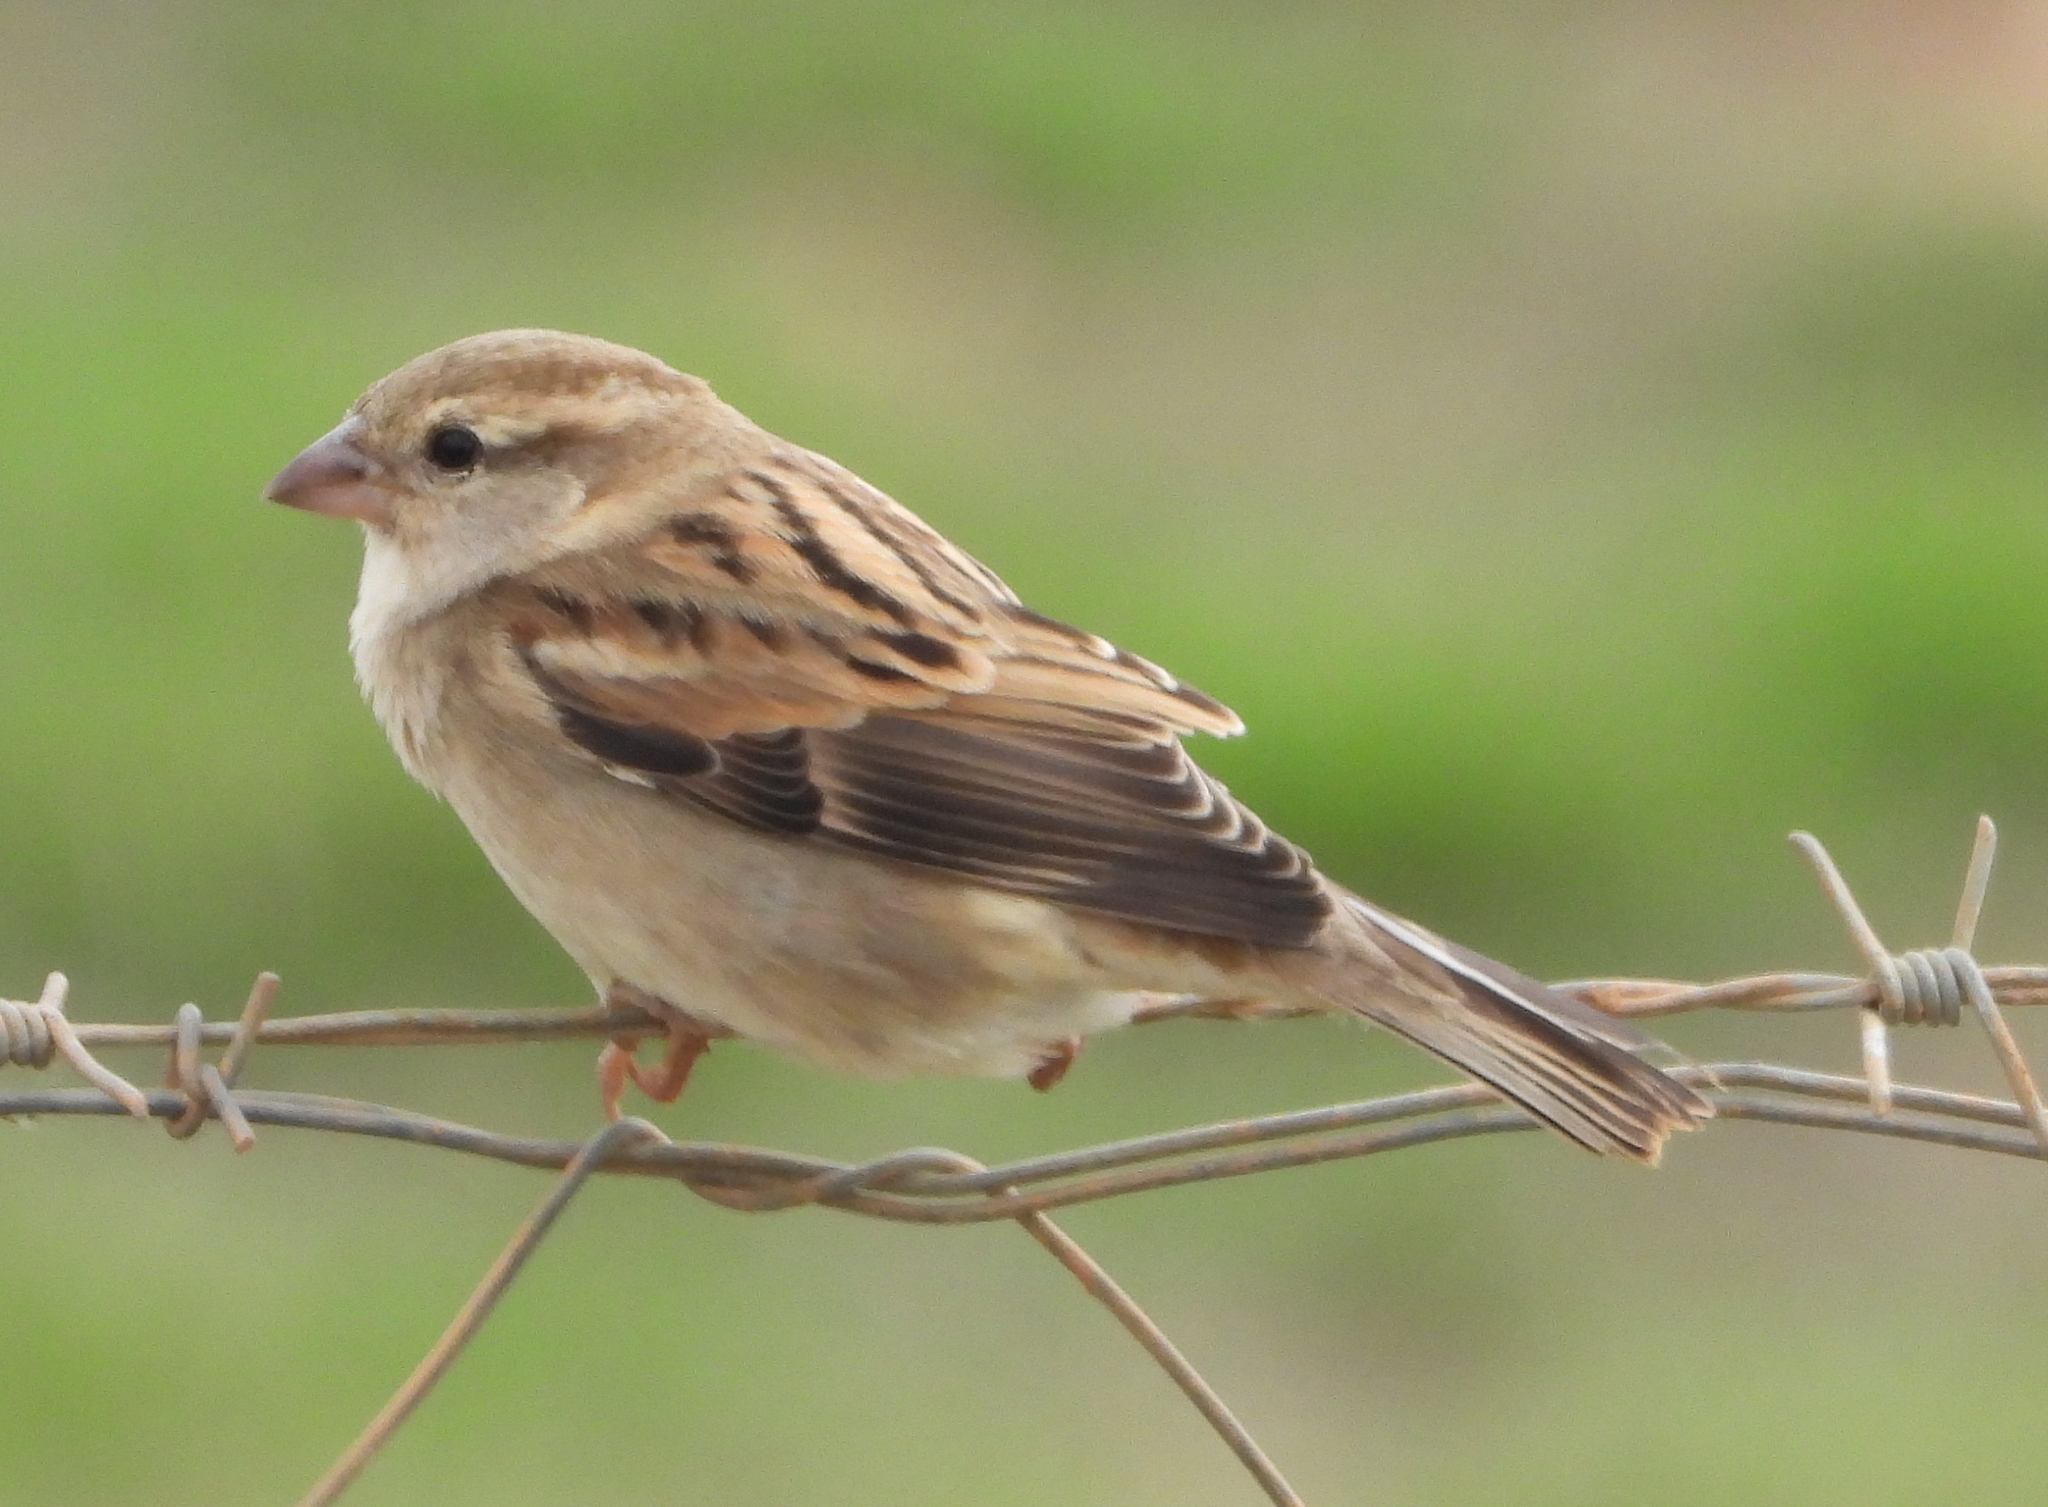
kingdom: Animalia
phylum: Chordata
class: Aves
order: Passeriformes
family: Passeridae
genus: Passer
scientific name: Passer domesticus
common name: House sparrow
